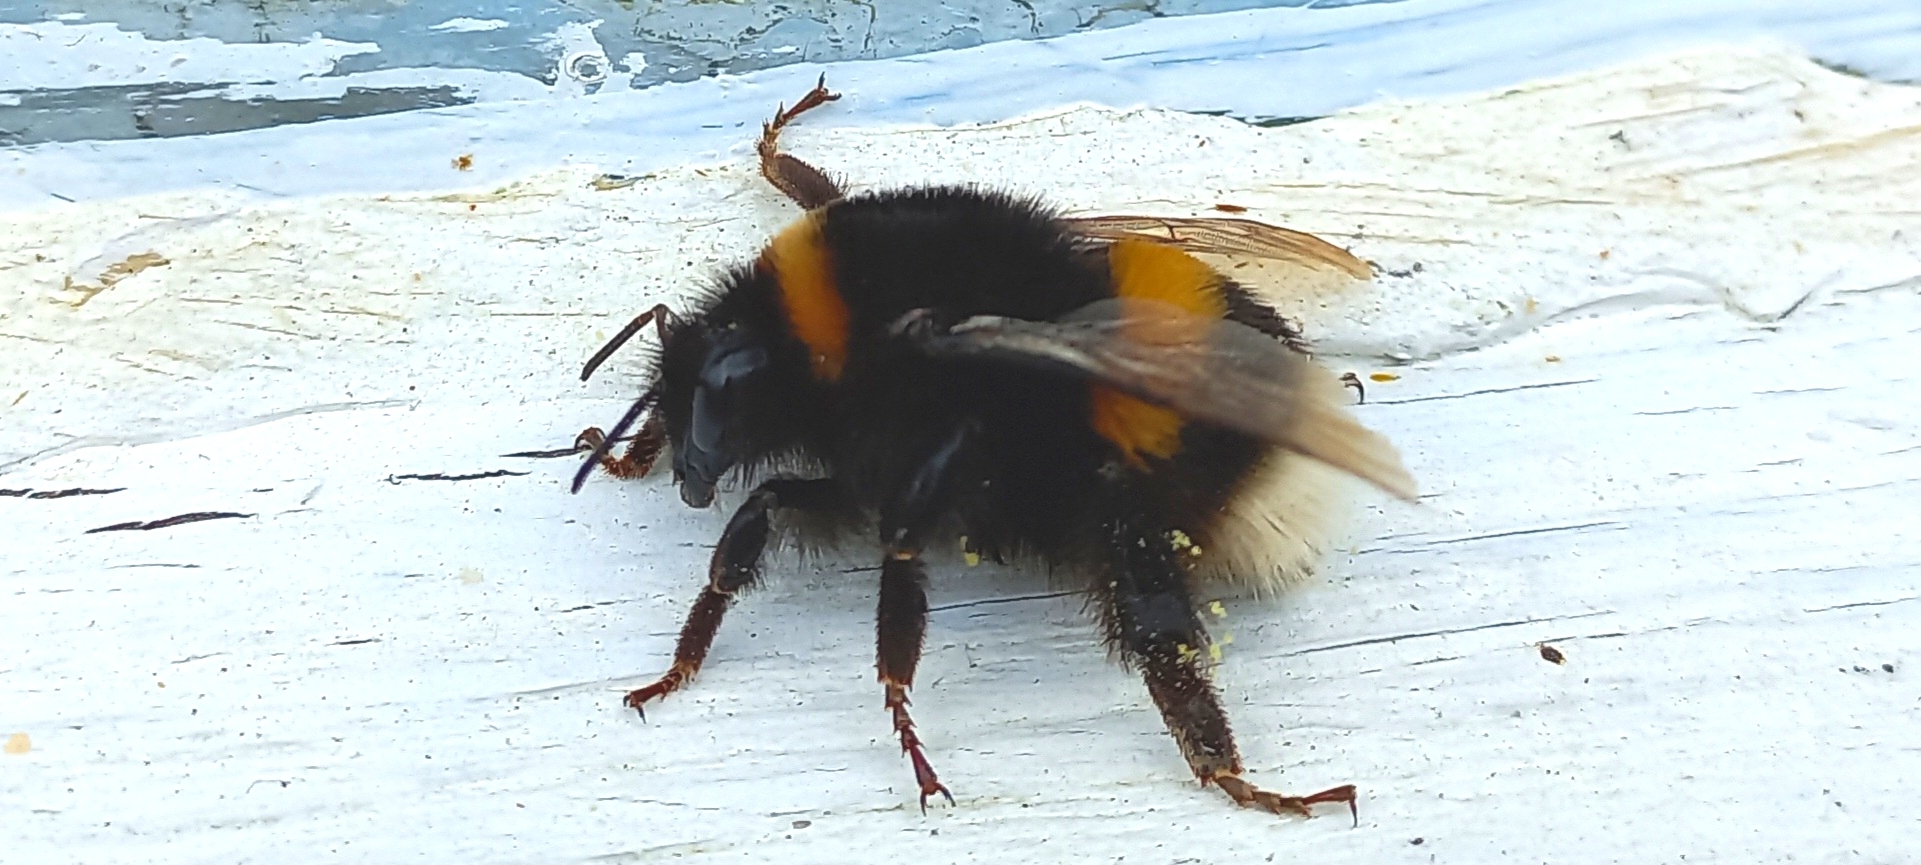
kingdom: Animalia
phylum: Arthropoda
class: Insecta
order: Hymenoptera
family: Apidae
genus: Bombus
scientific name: Bombus
